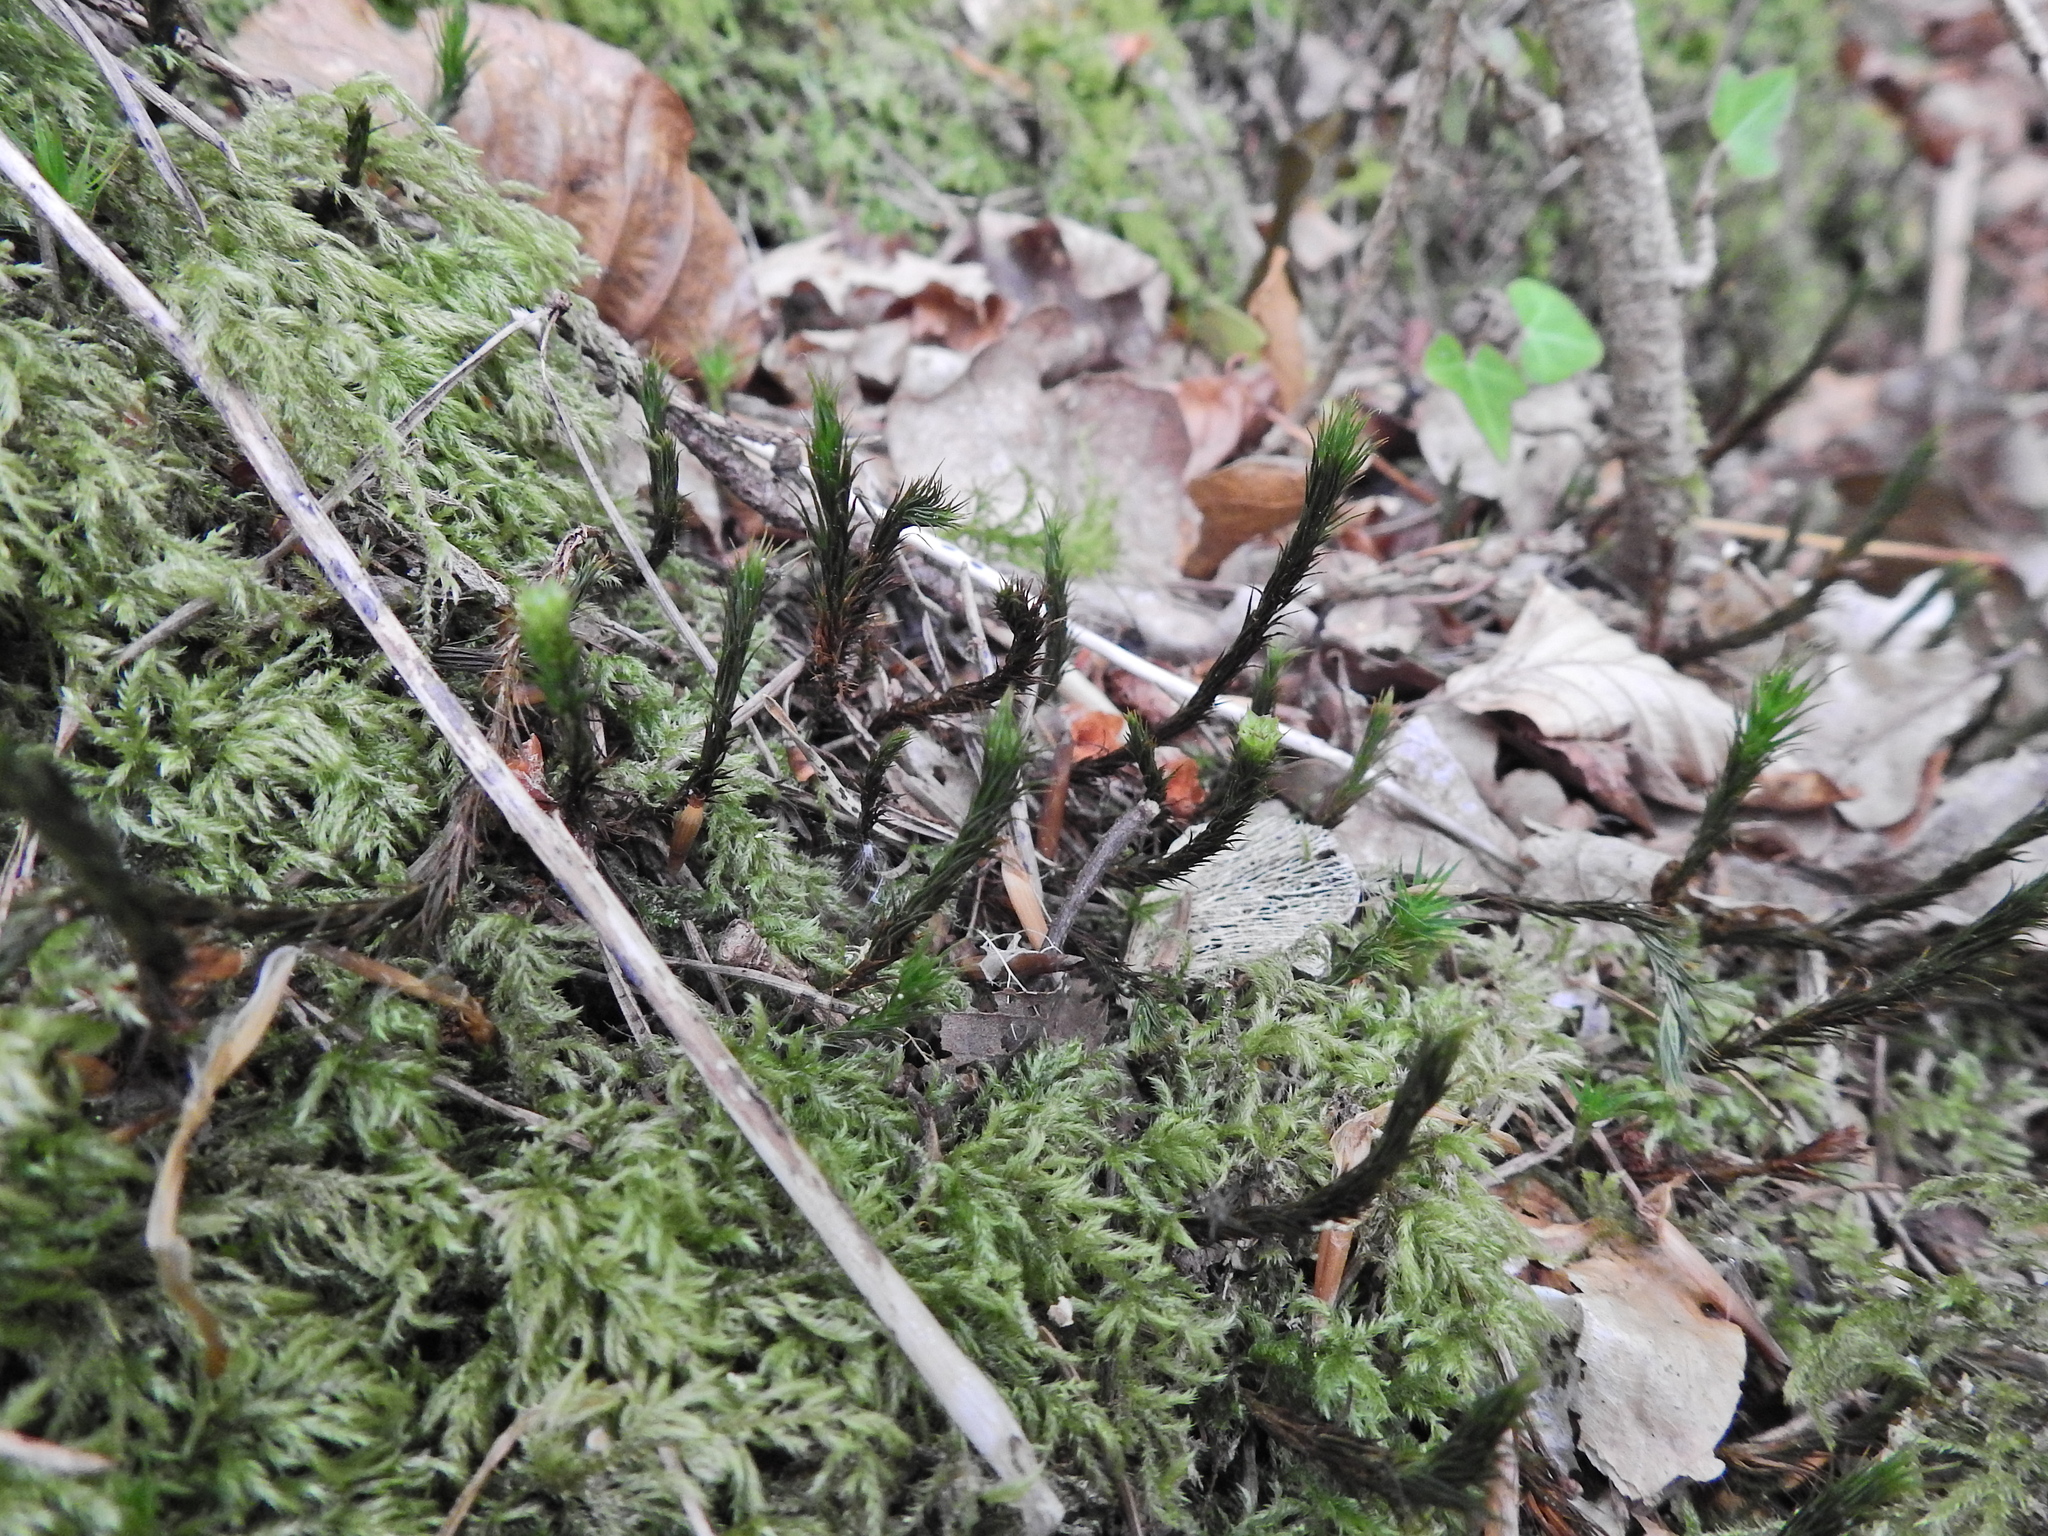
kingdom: Plantae
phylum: Bryophyta
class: Polytrichopsida
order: Polytrichales
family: Polytrichaceae
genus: Polytrichum
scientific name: Polytrichum formosum
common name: Bank haircap moss
